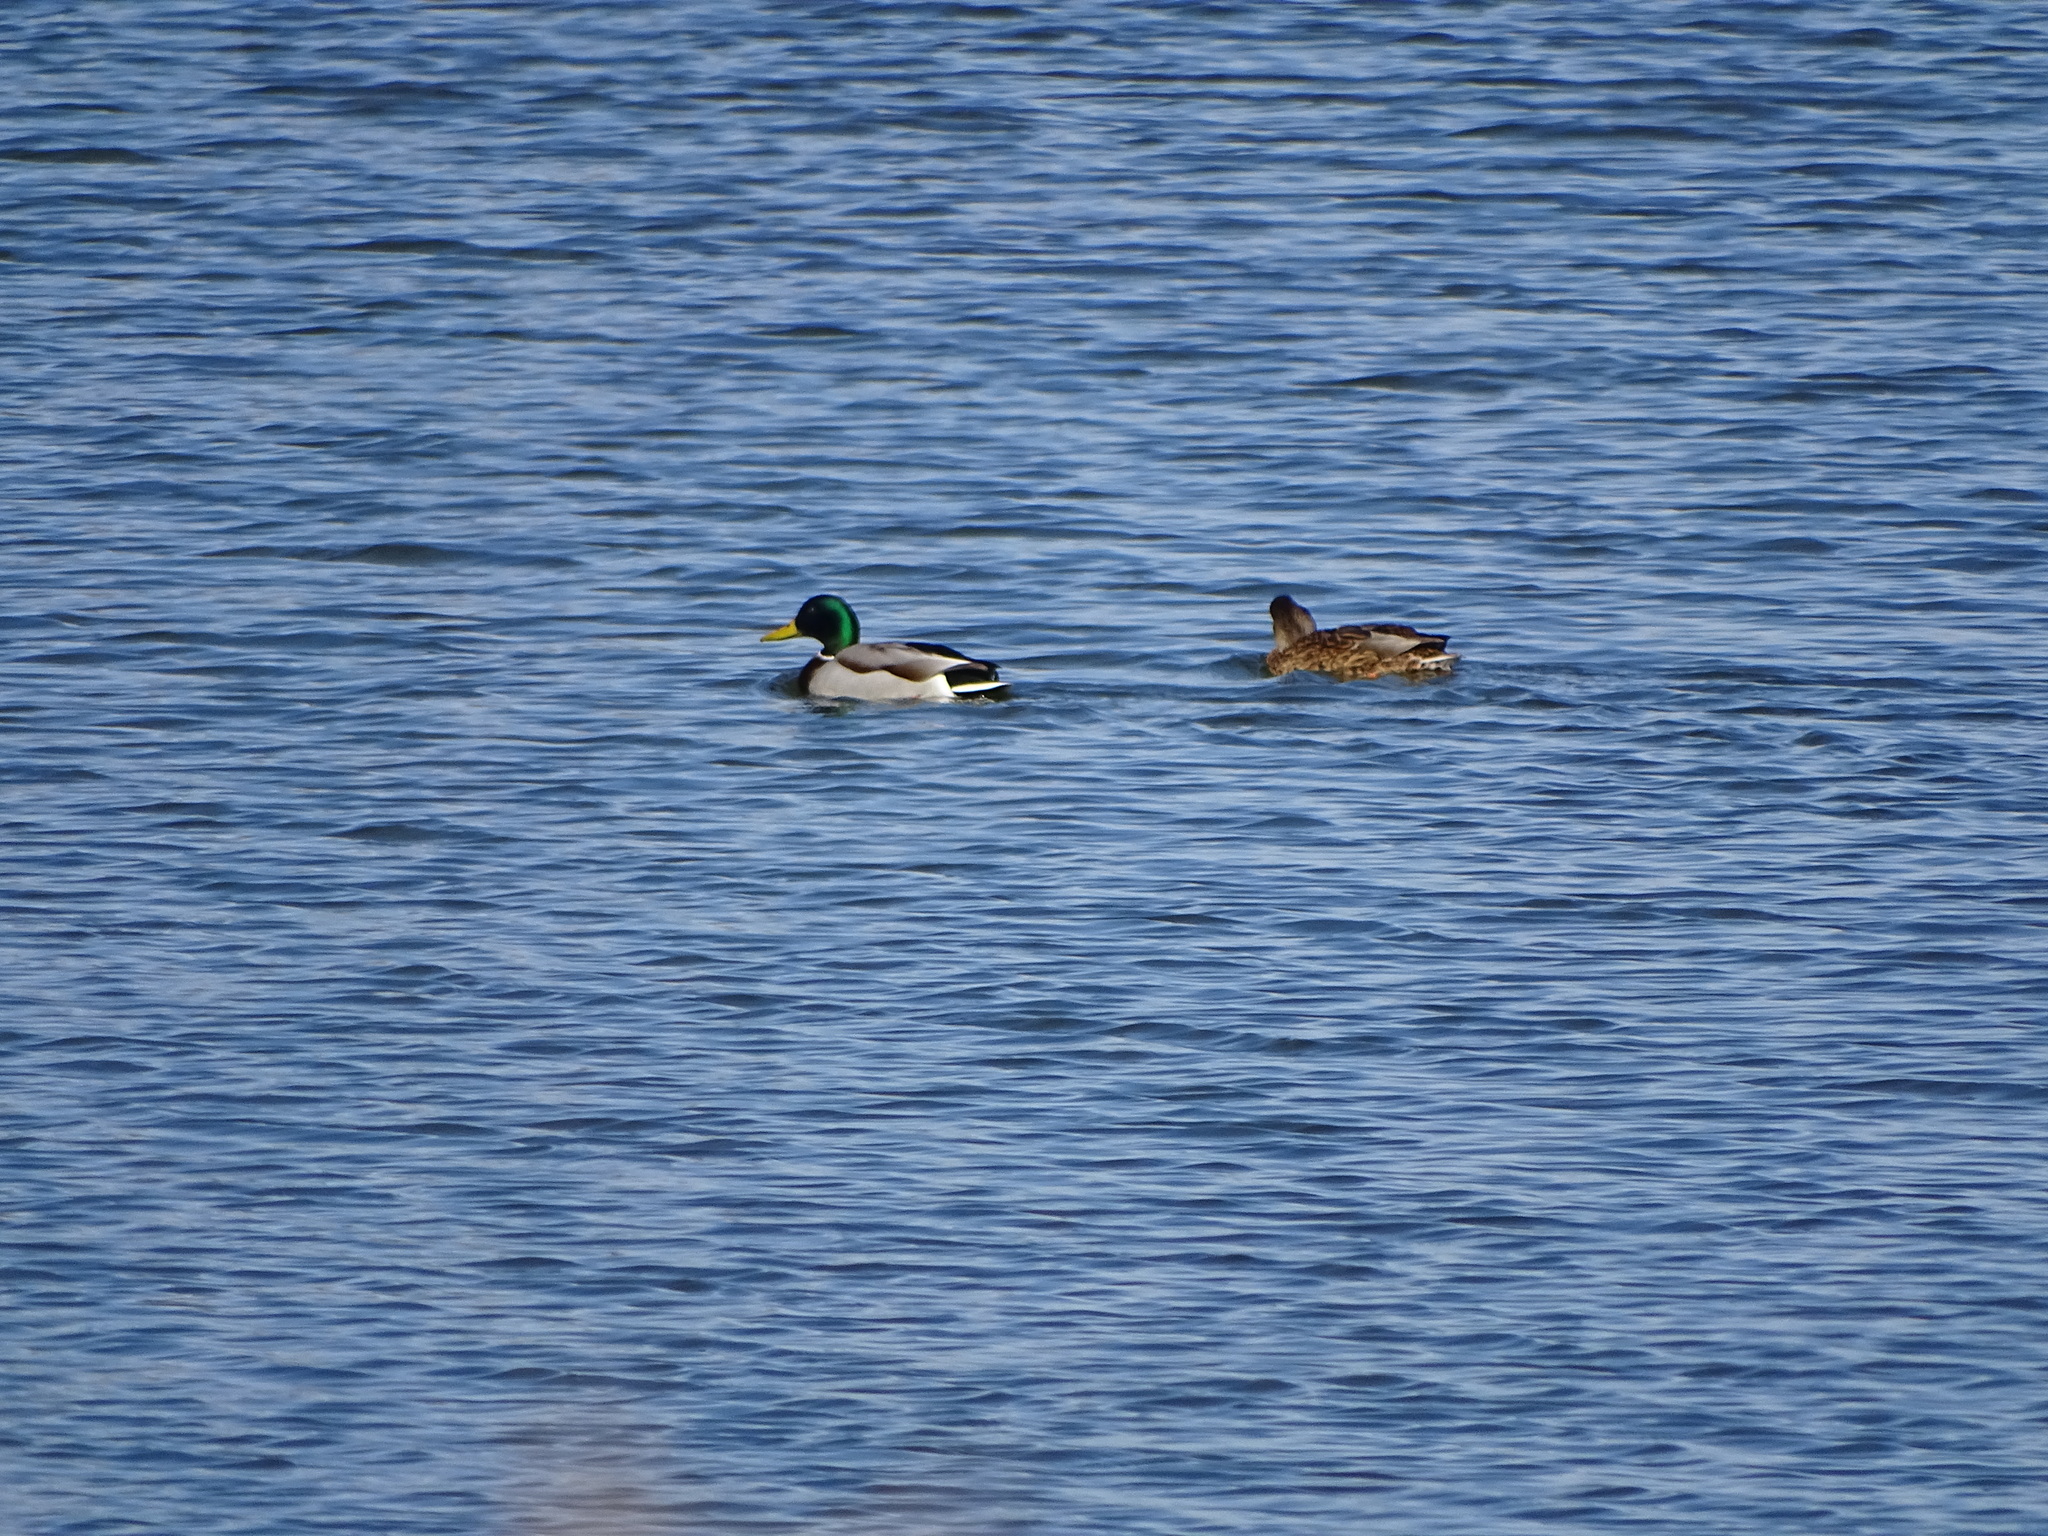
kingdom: Animalia
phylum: Chordata
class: Aves
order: Anseriformes
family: Anatidae
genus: Anas
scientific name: Anas platyrhynchos
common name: Mallard
